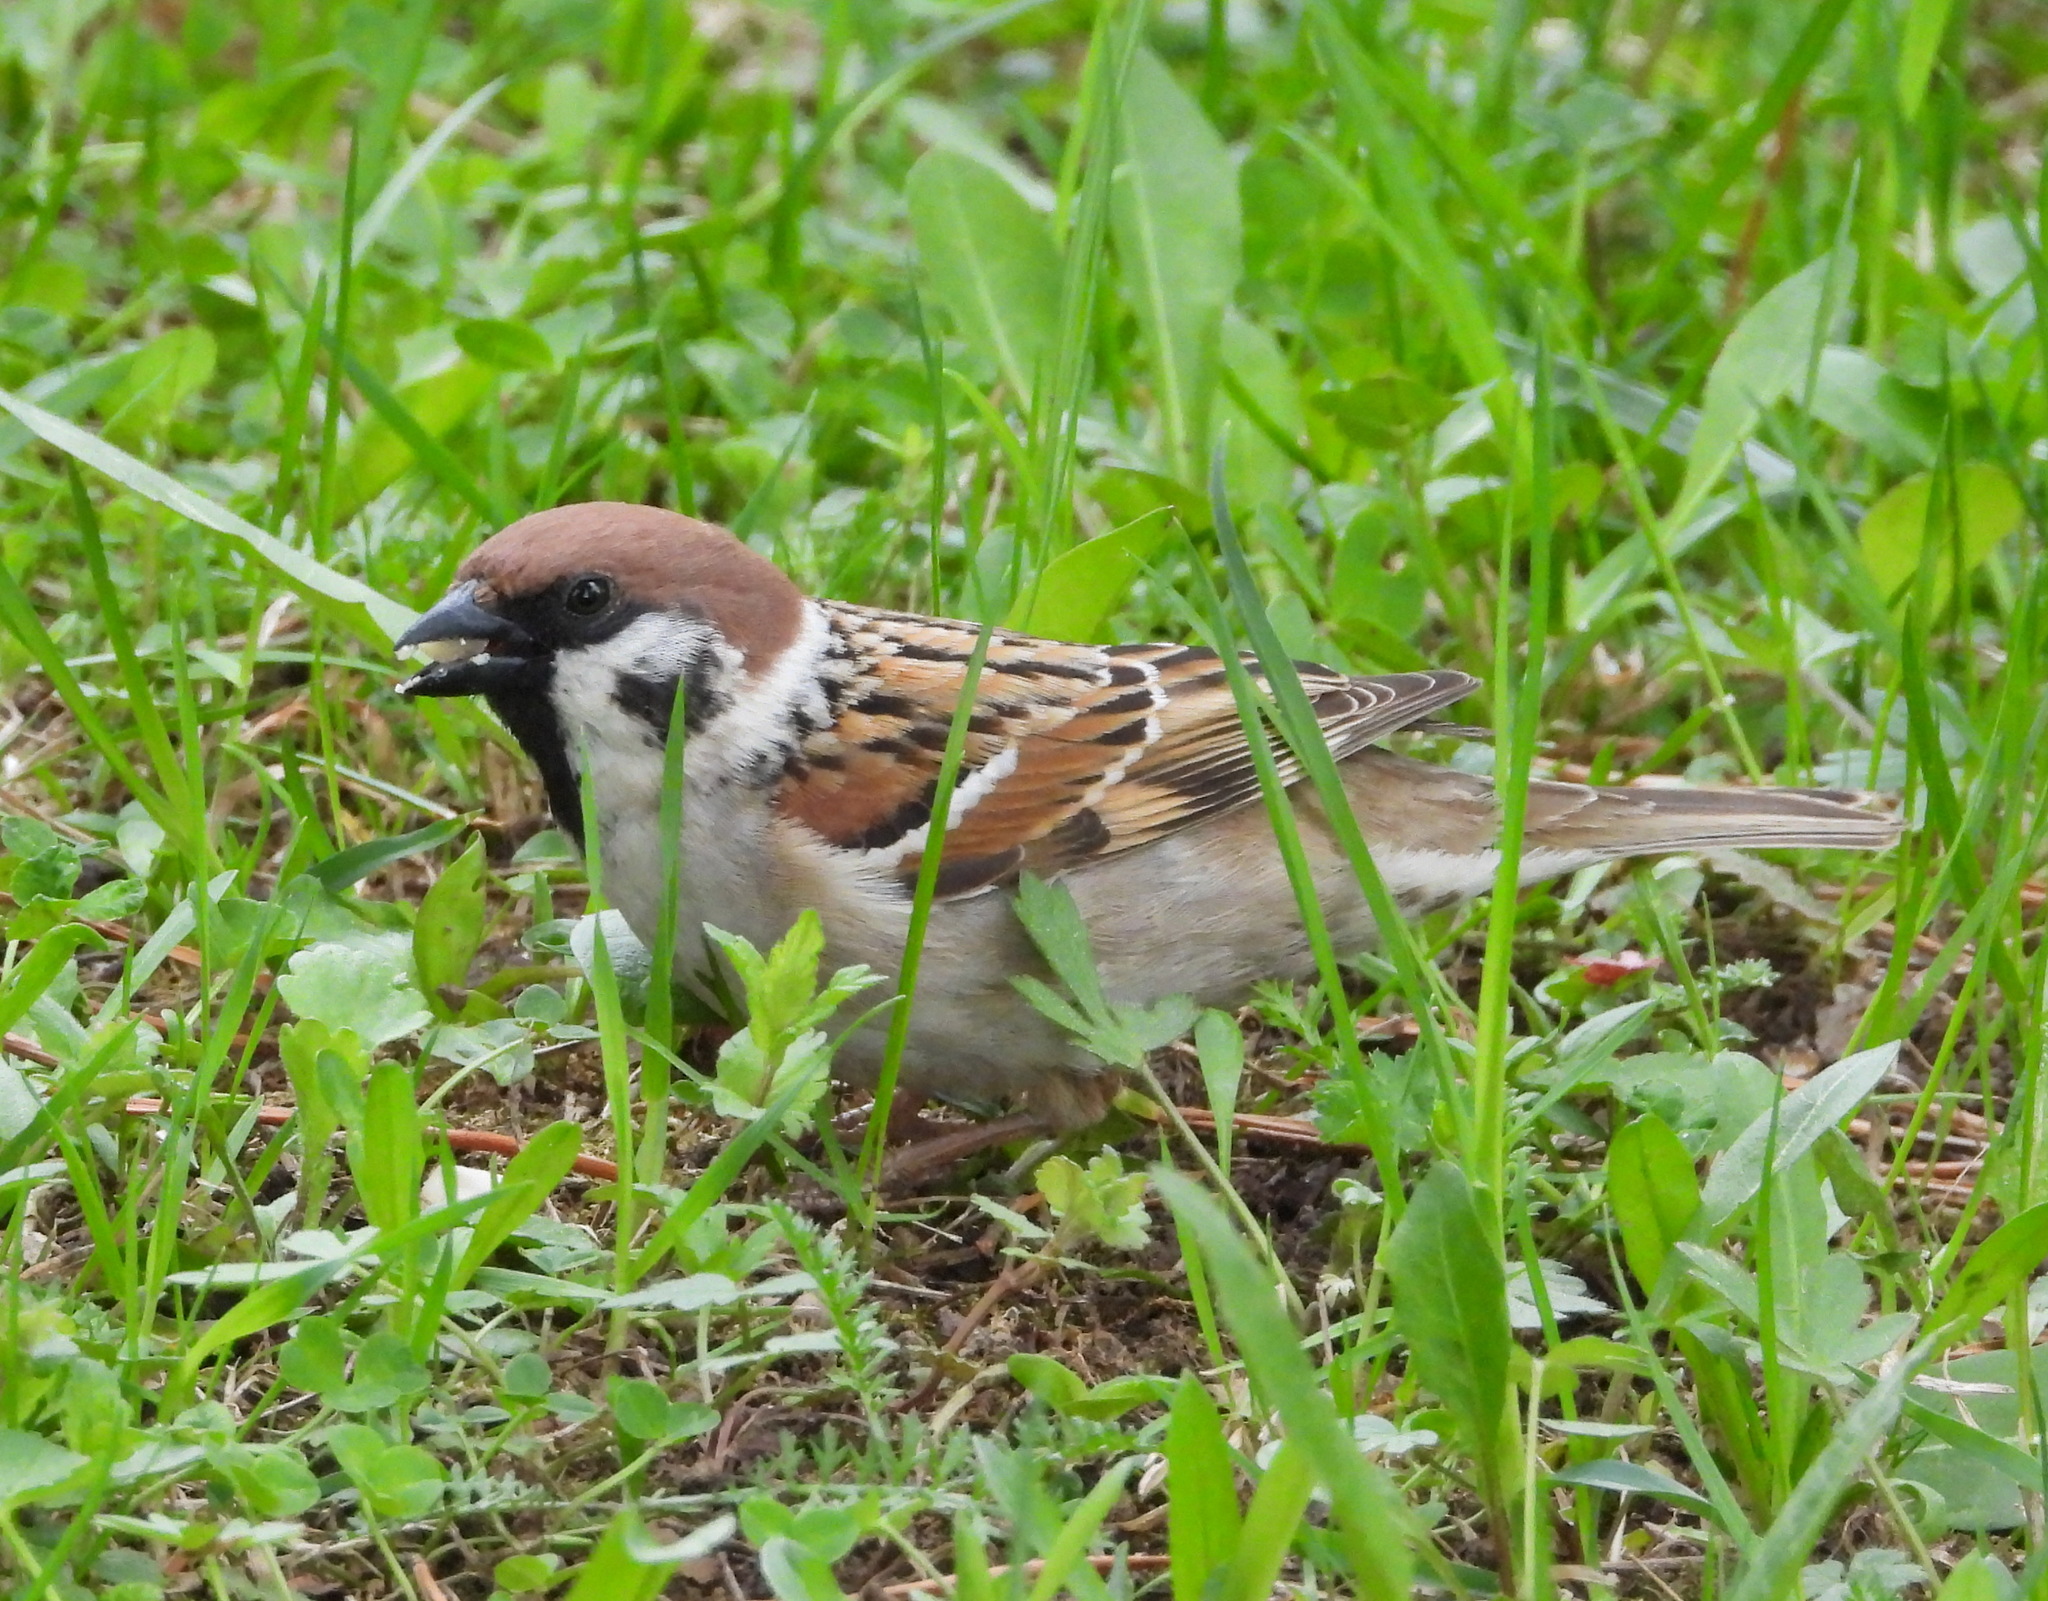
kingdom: Animalia
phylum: Chordata
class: Aves
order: Passeriformes
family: Passeridae
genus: Passer
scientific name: Passer montanus
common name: Eurasian tree sparrow
